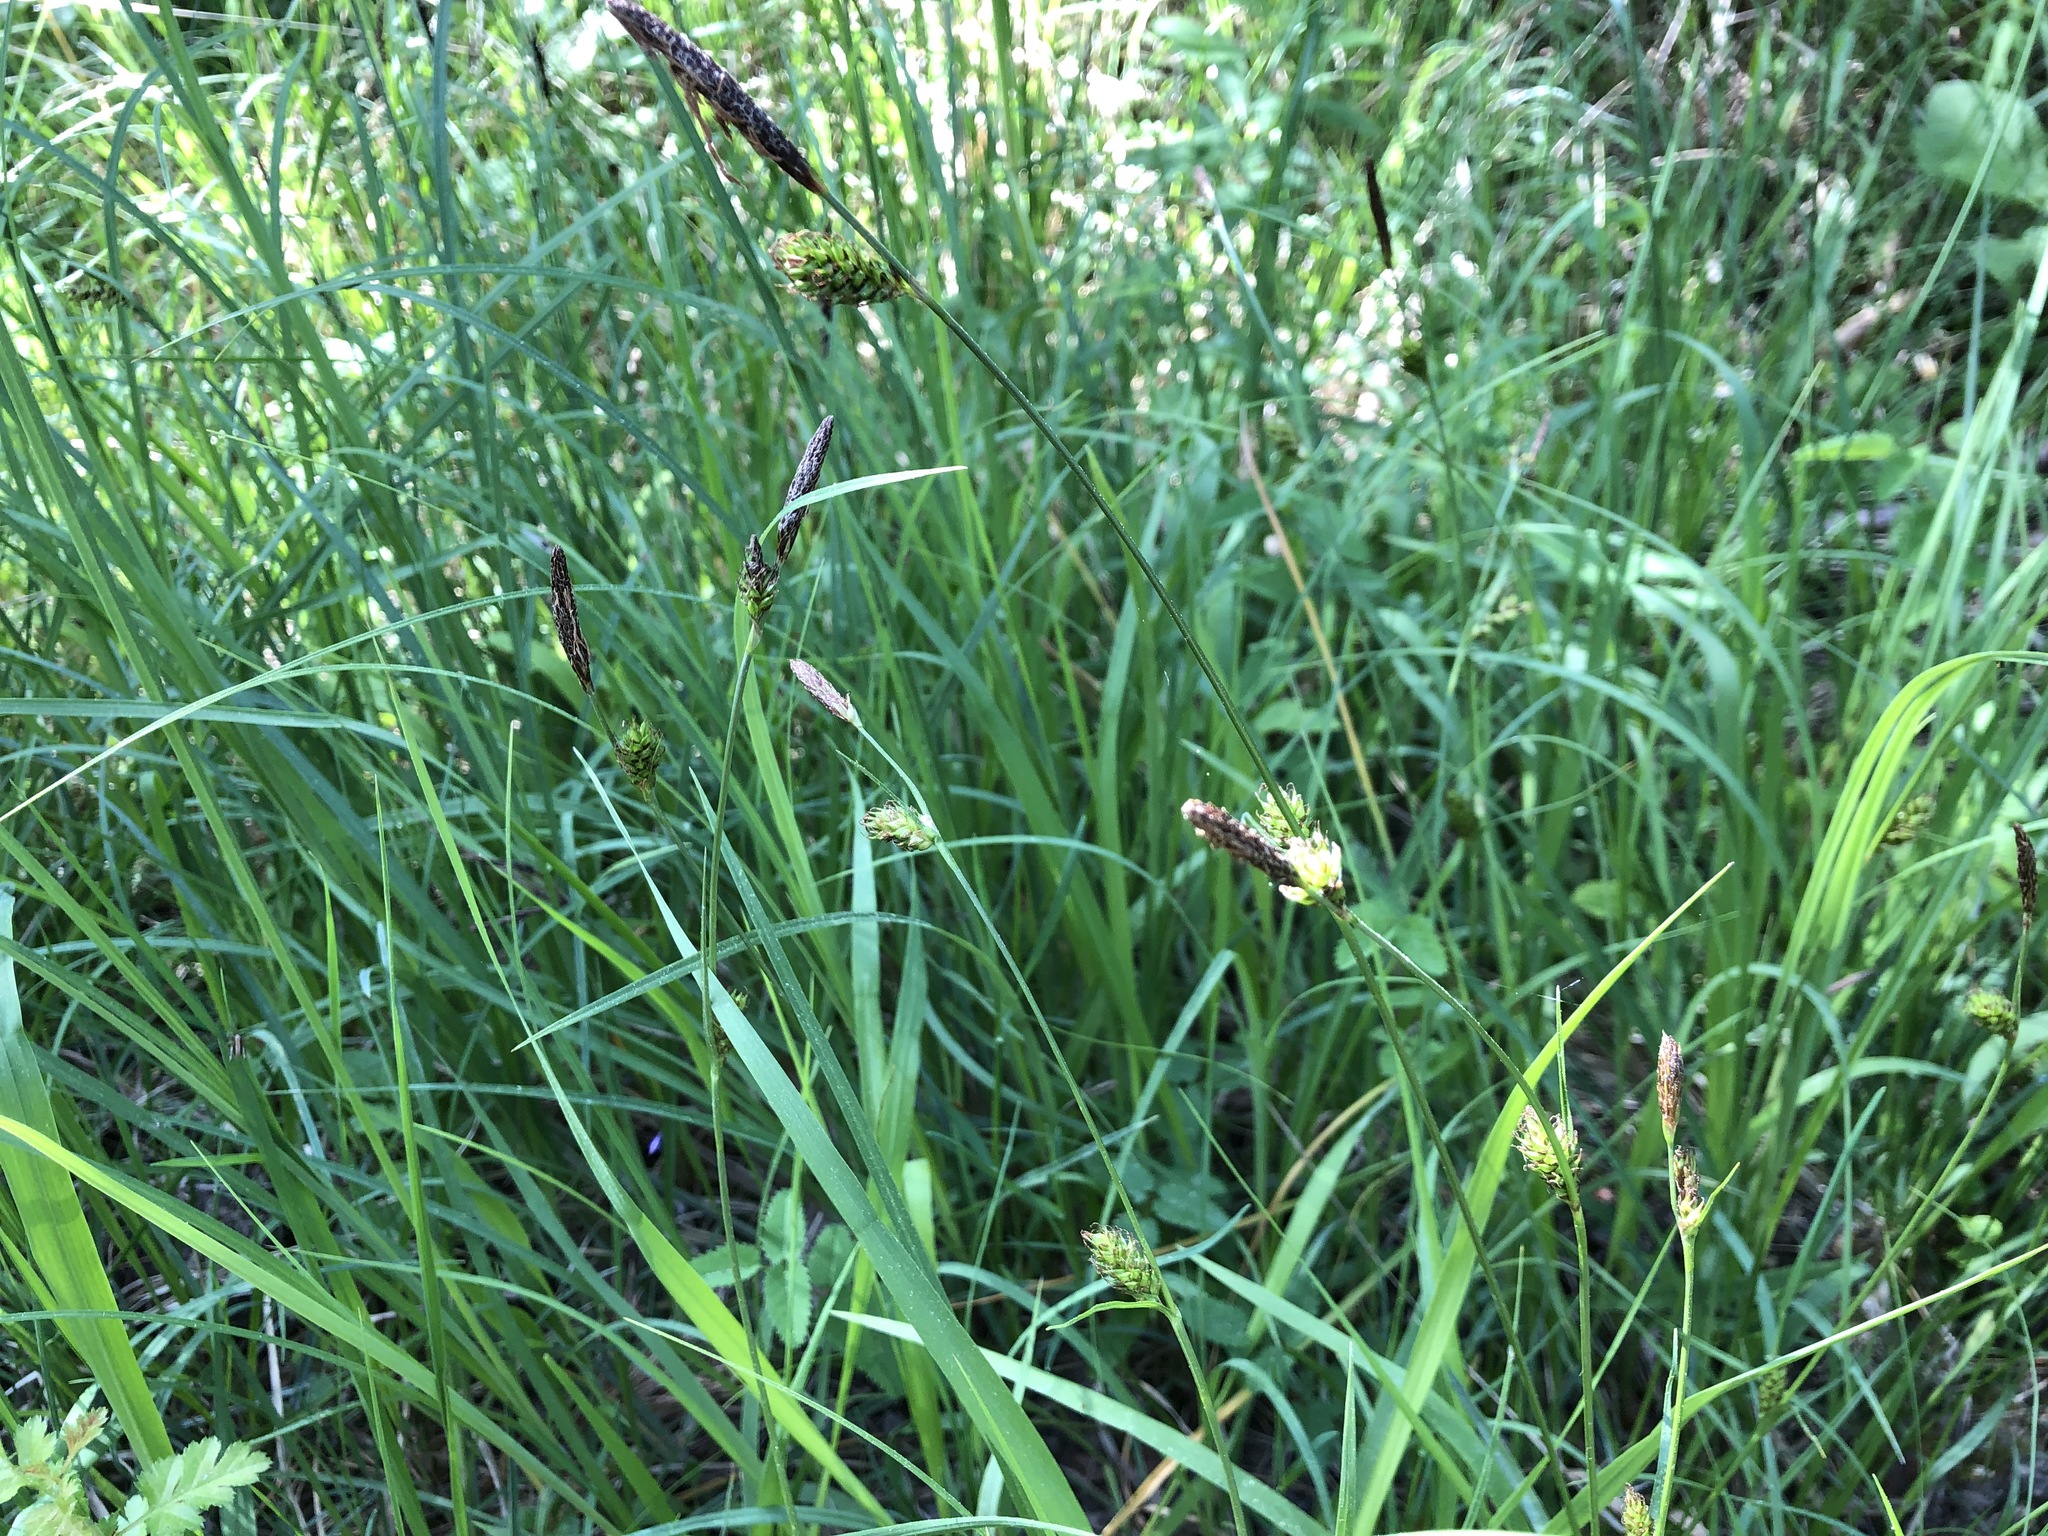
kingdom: Plantae
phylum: Tracheophyta
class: Liliopsida
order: Poales
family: Cyperaceae
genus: Carex
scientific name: Carex distans
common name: Distant sedge
